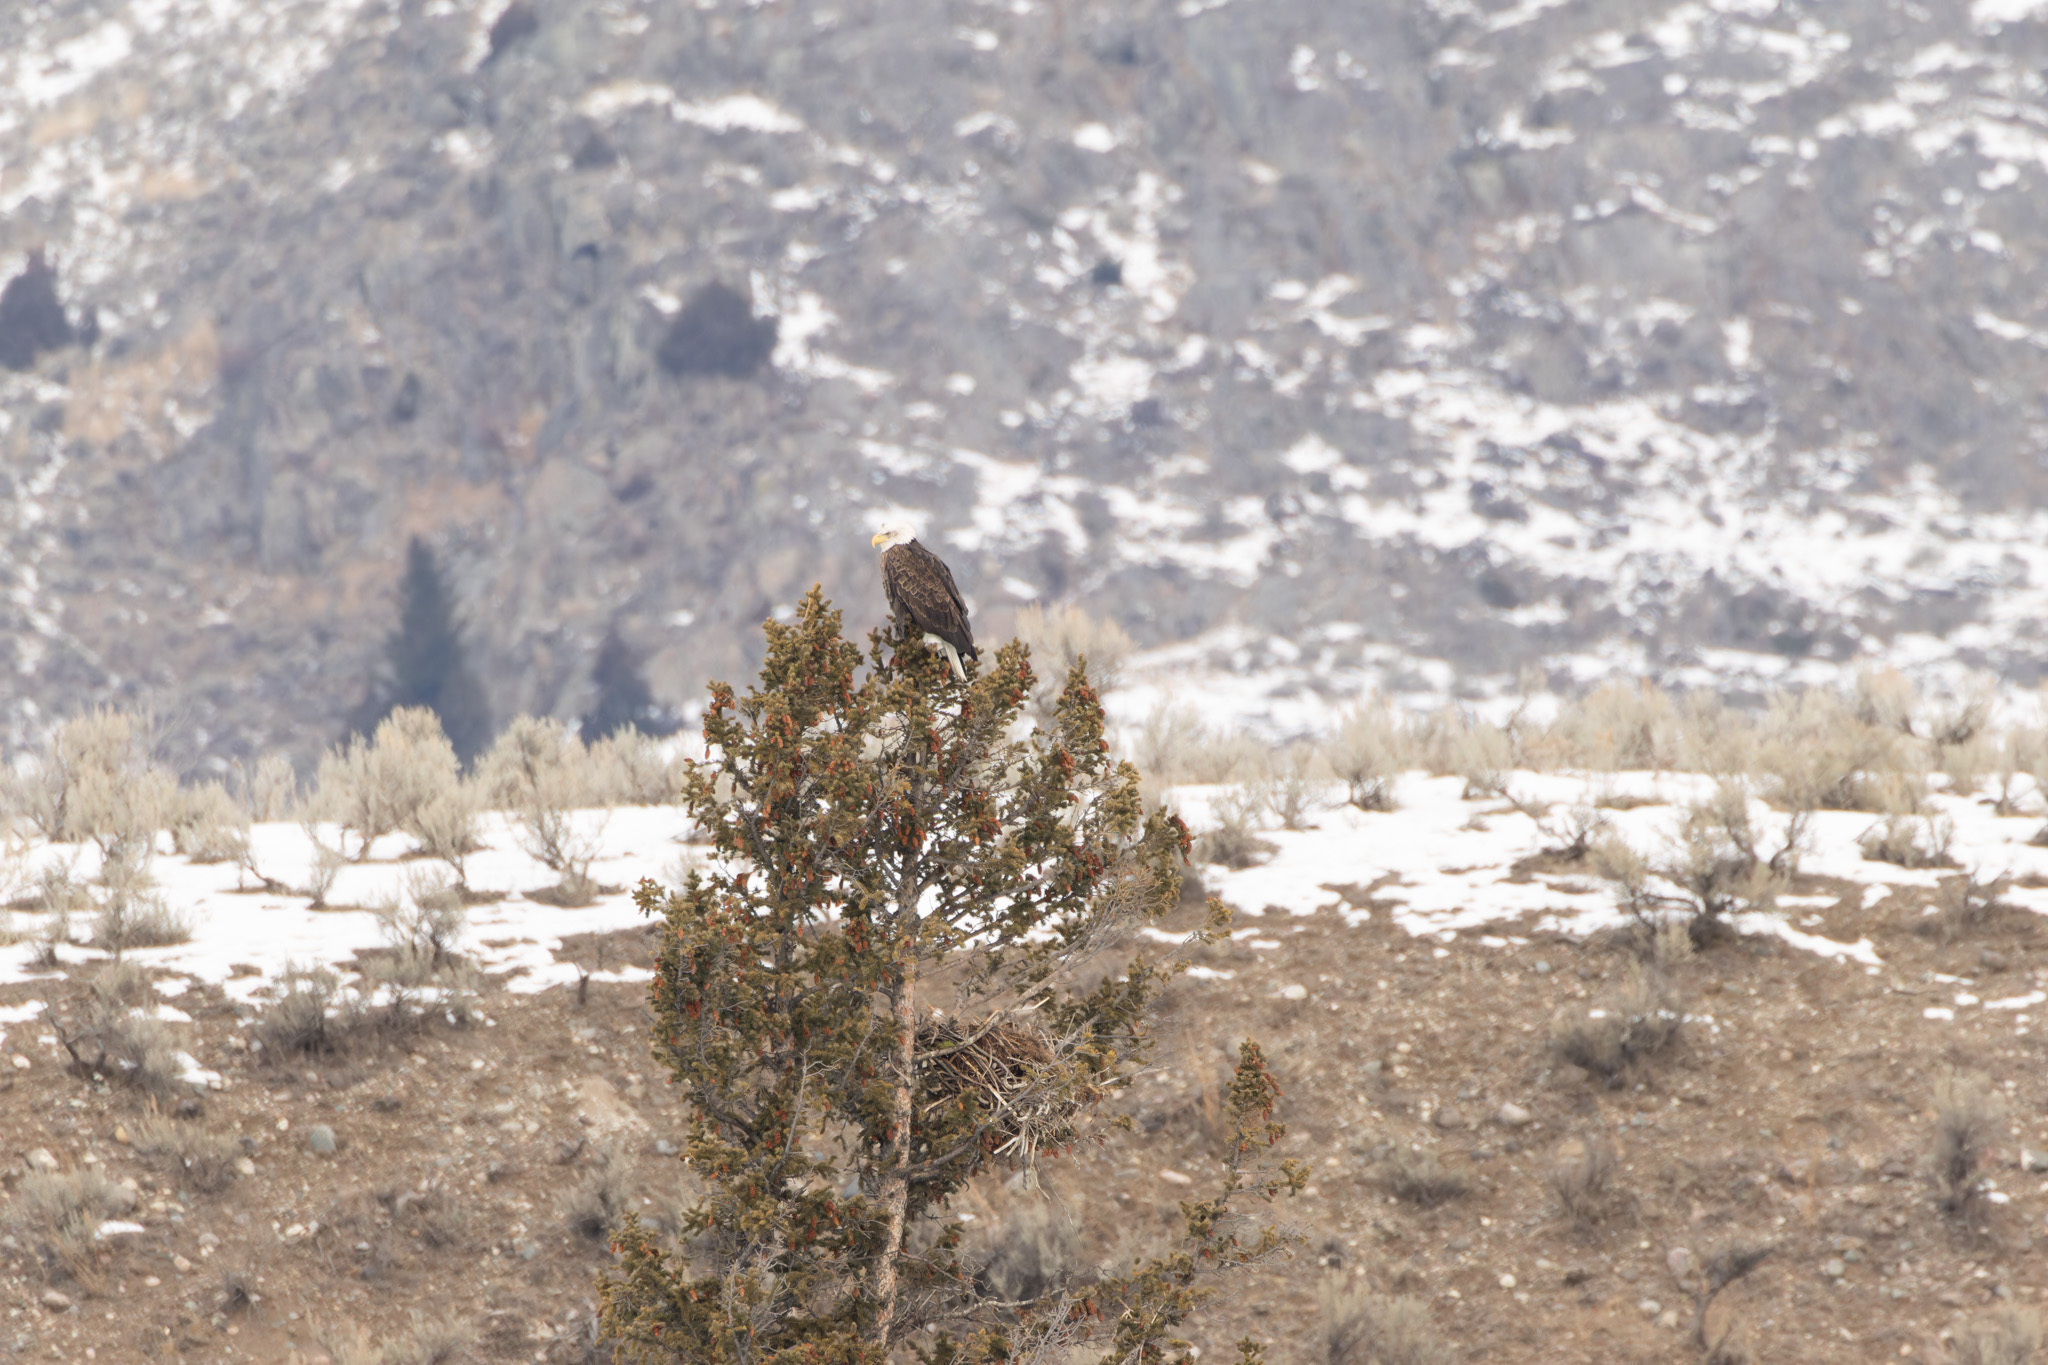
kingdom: Animalia
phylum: Chordata
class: Aves
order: Accipitriformes
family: Accipitridae
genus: Haliaeetus
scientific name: Haliaeetus leucocephalus
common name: Bald eagle
